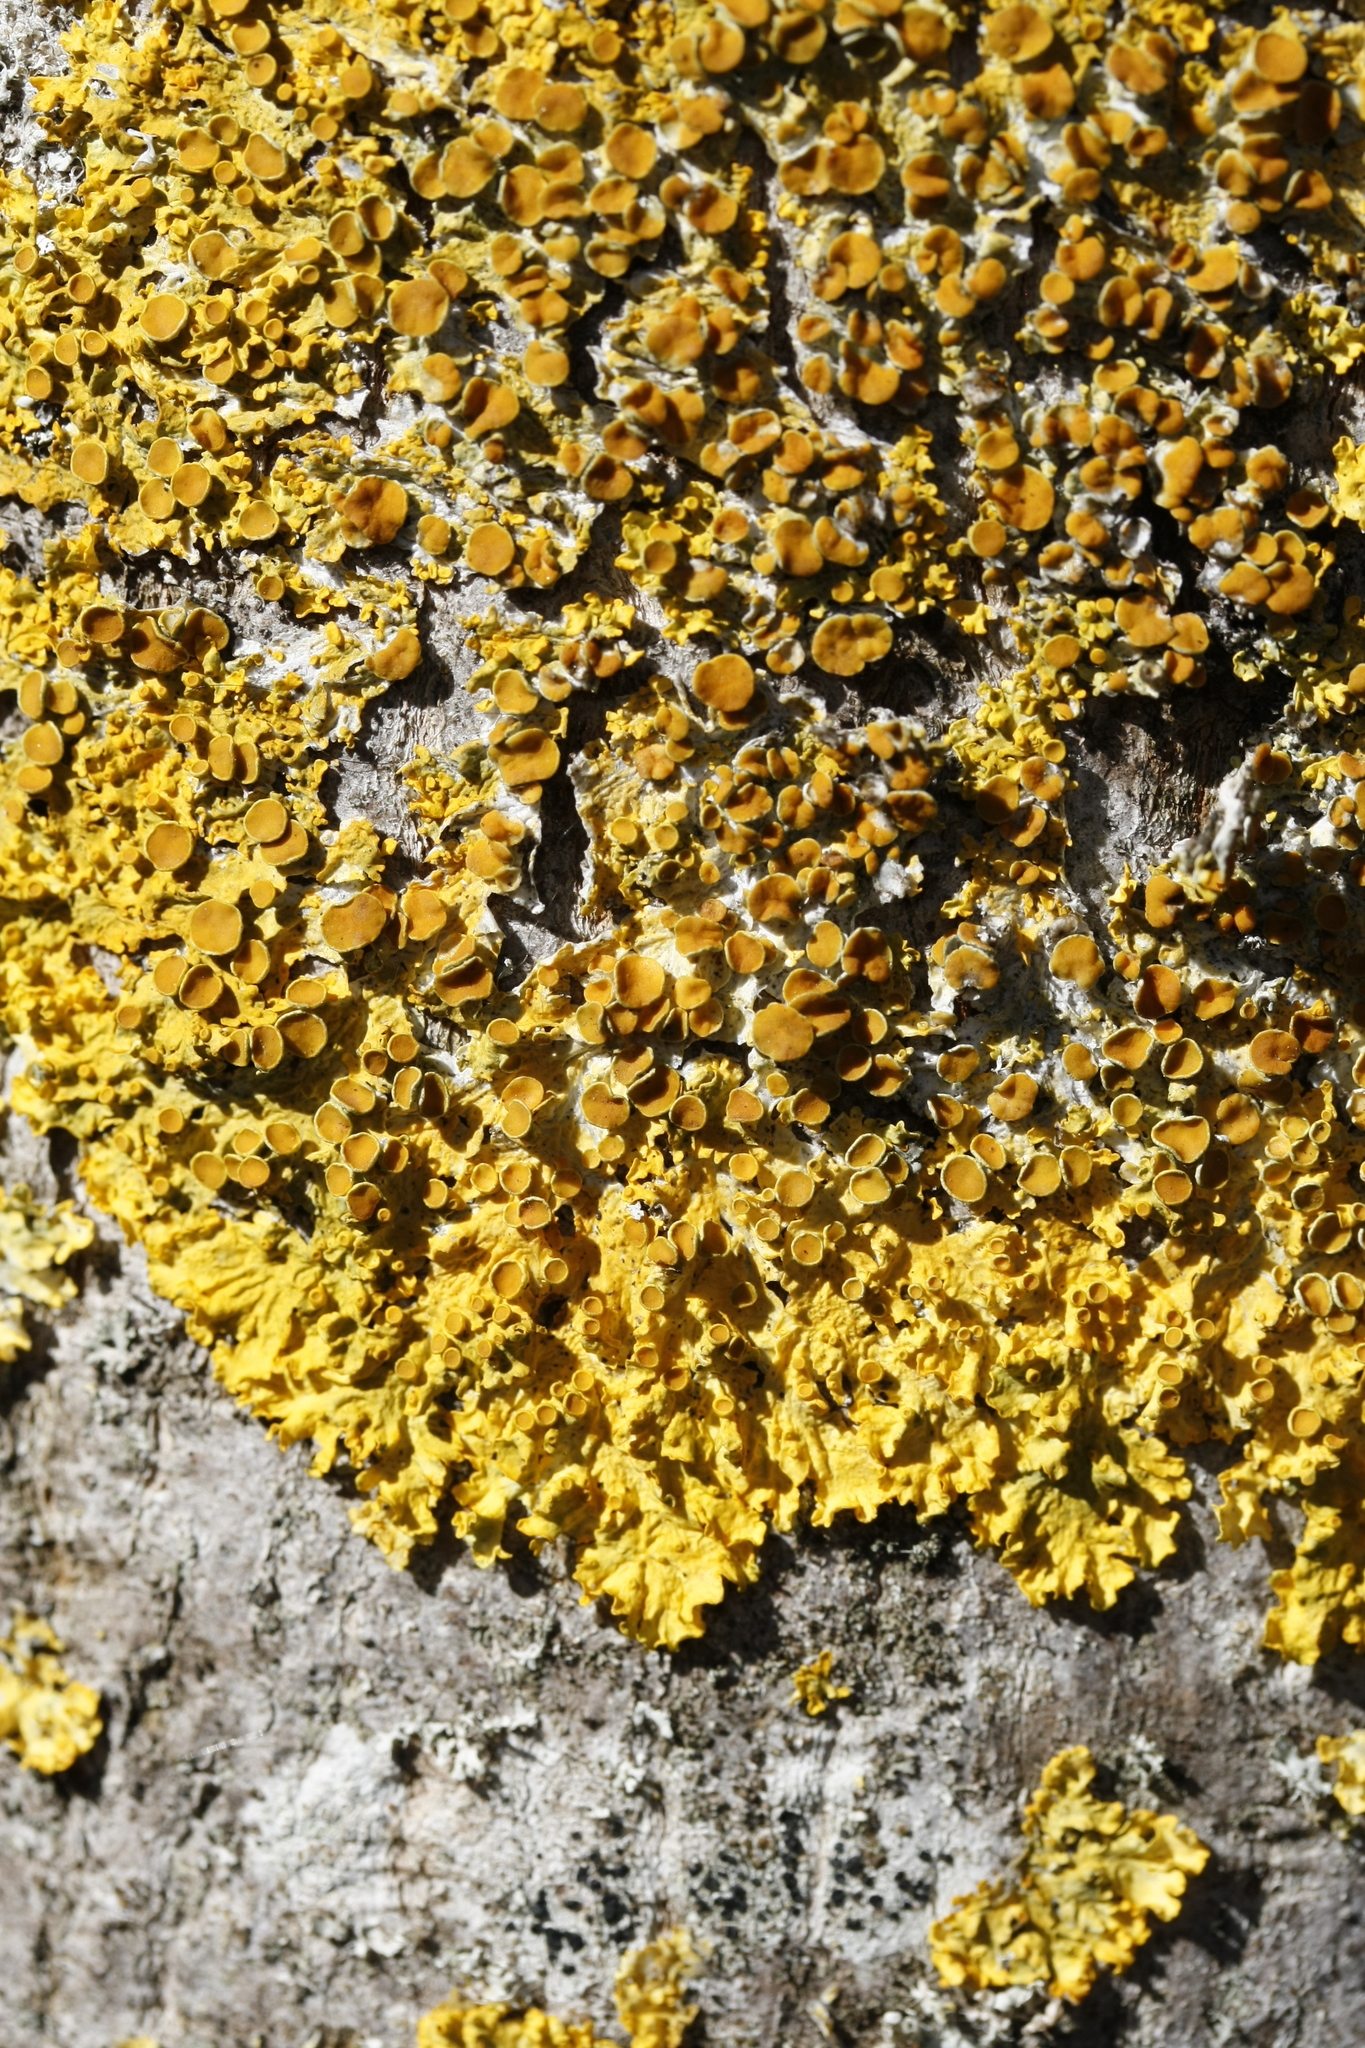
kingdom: Fungi
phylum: Ascomycota
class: Lecanoromycetes
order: Teloschistales
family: Teloschistaceae
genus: Xanthoria
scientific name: Xanthoria parietina
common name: Common orange lichen
